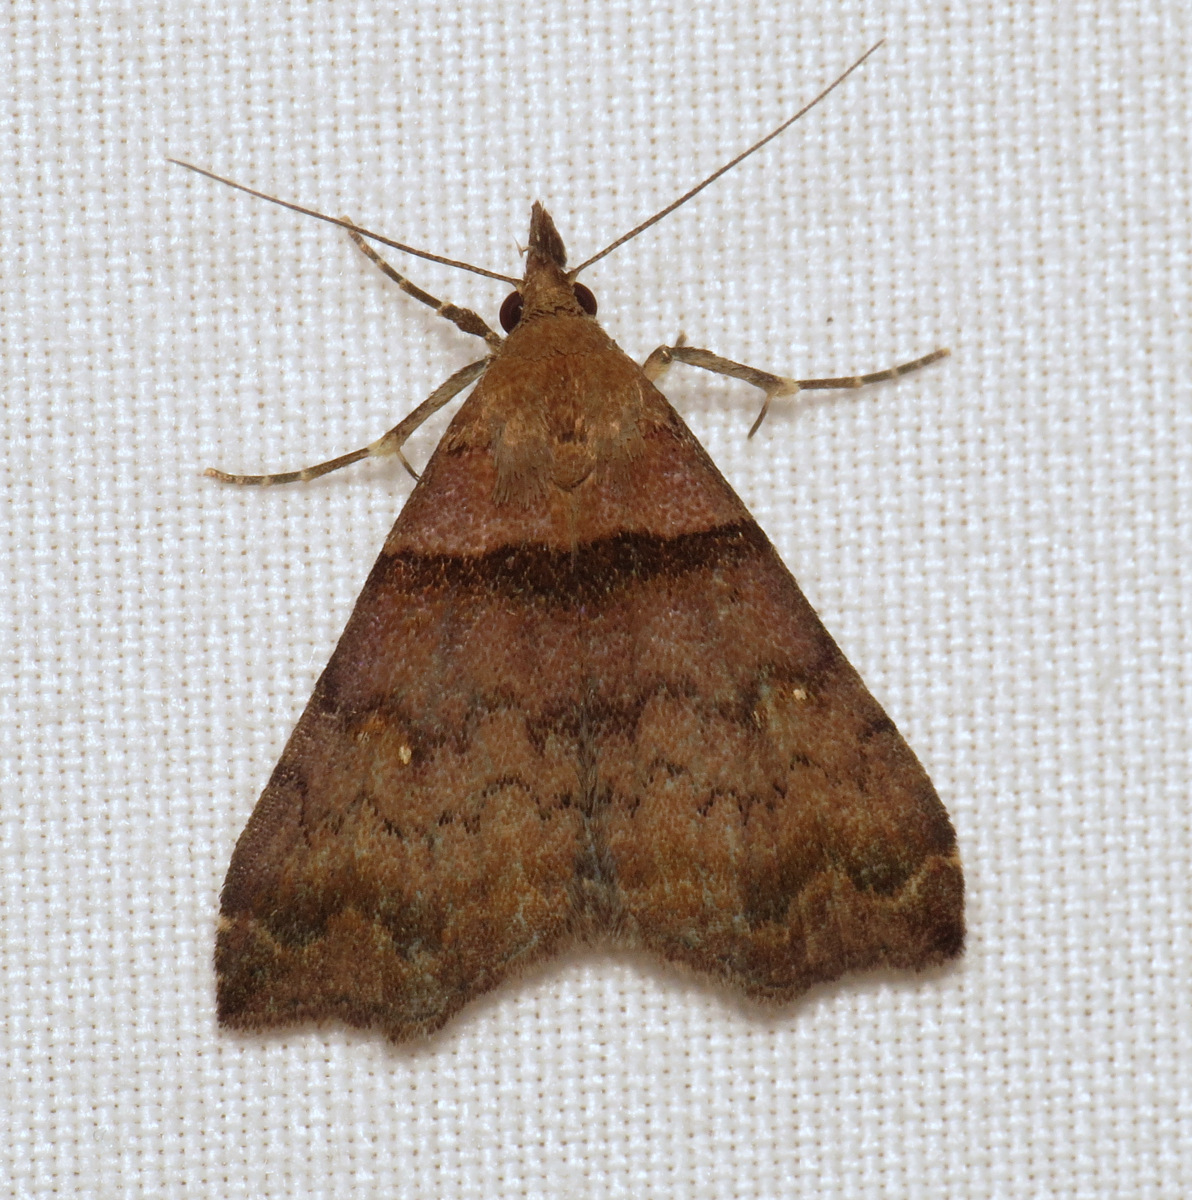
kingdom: Animalia
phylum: Arthropoda
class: Insecta
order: Lepidoptera
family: Erebidae
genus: Lascoria
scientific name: Lascoria ambigualis
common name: Ambiguous moth
